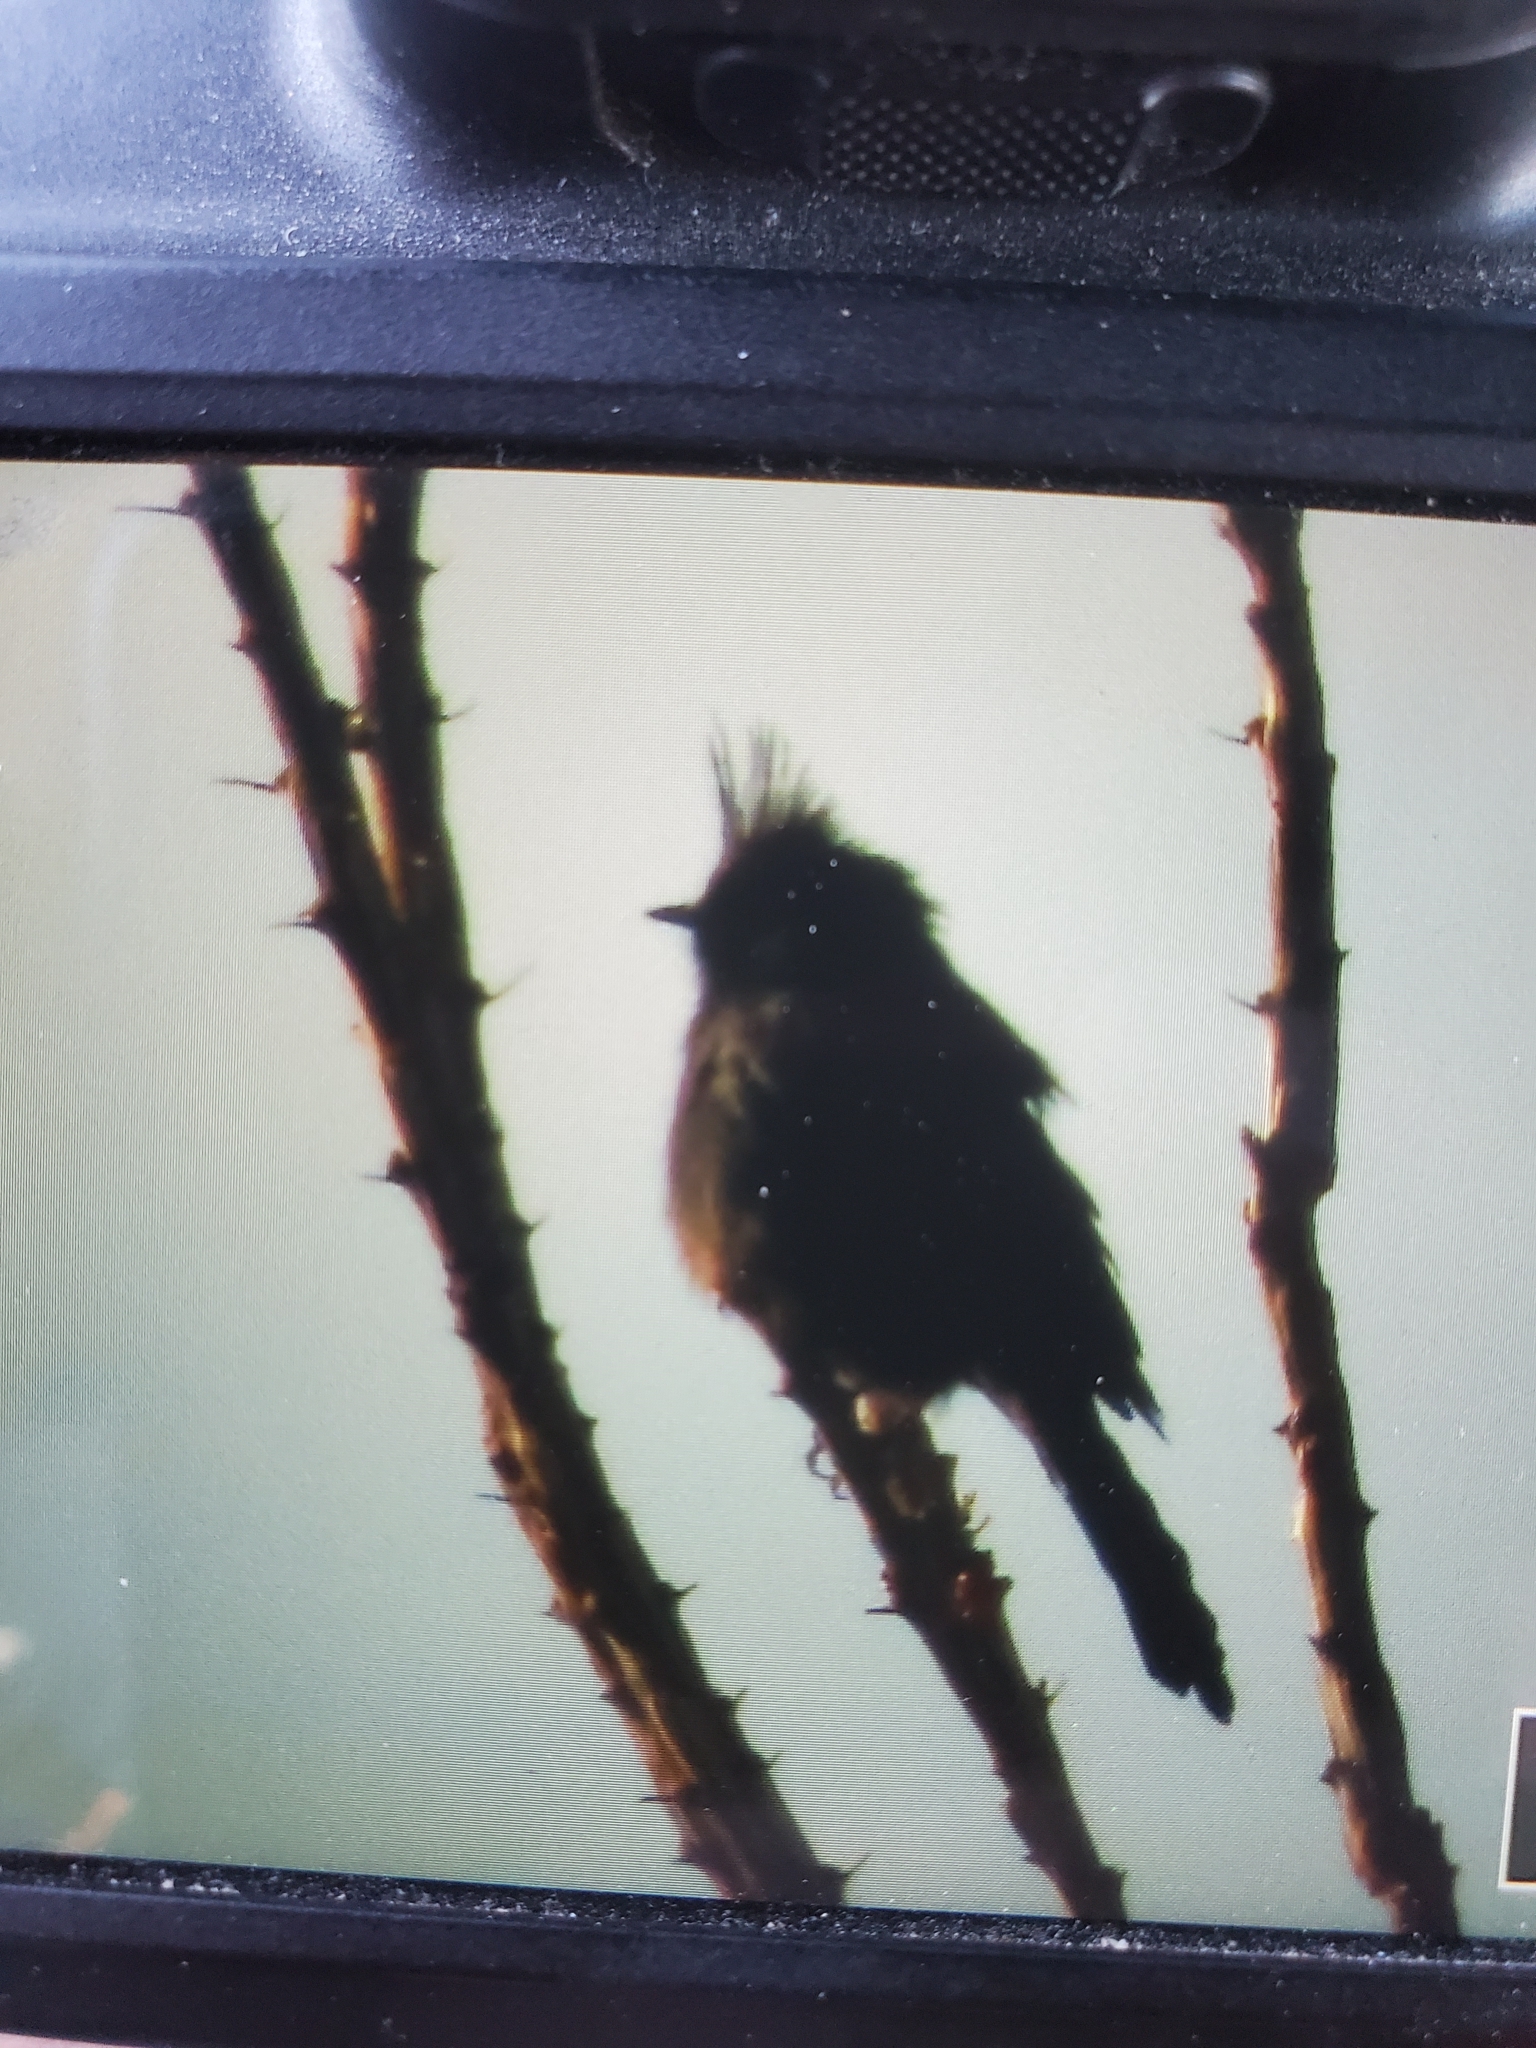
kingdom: Animalia
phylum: Chordata
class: Aves
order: Passeriformes
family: Ptilogonatidae
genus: Phainopepla
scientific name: Phainopepla nitens
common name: Phainopepla
